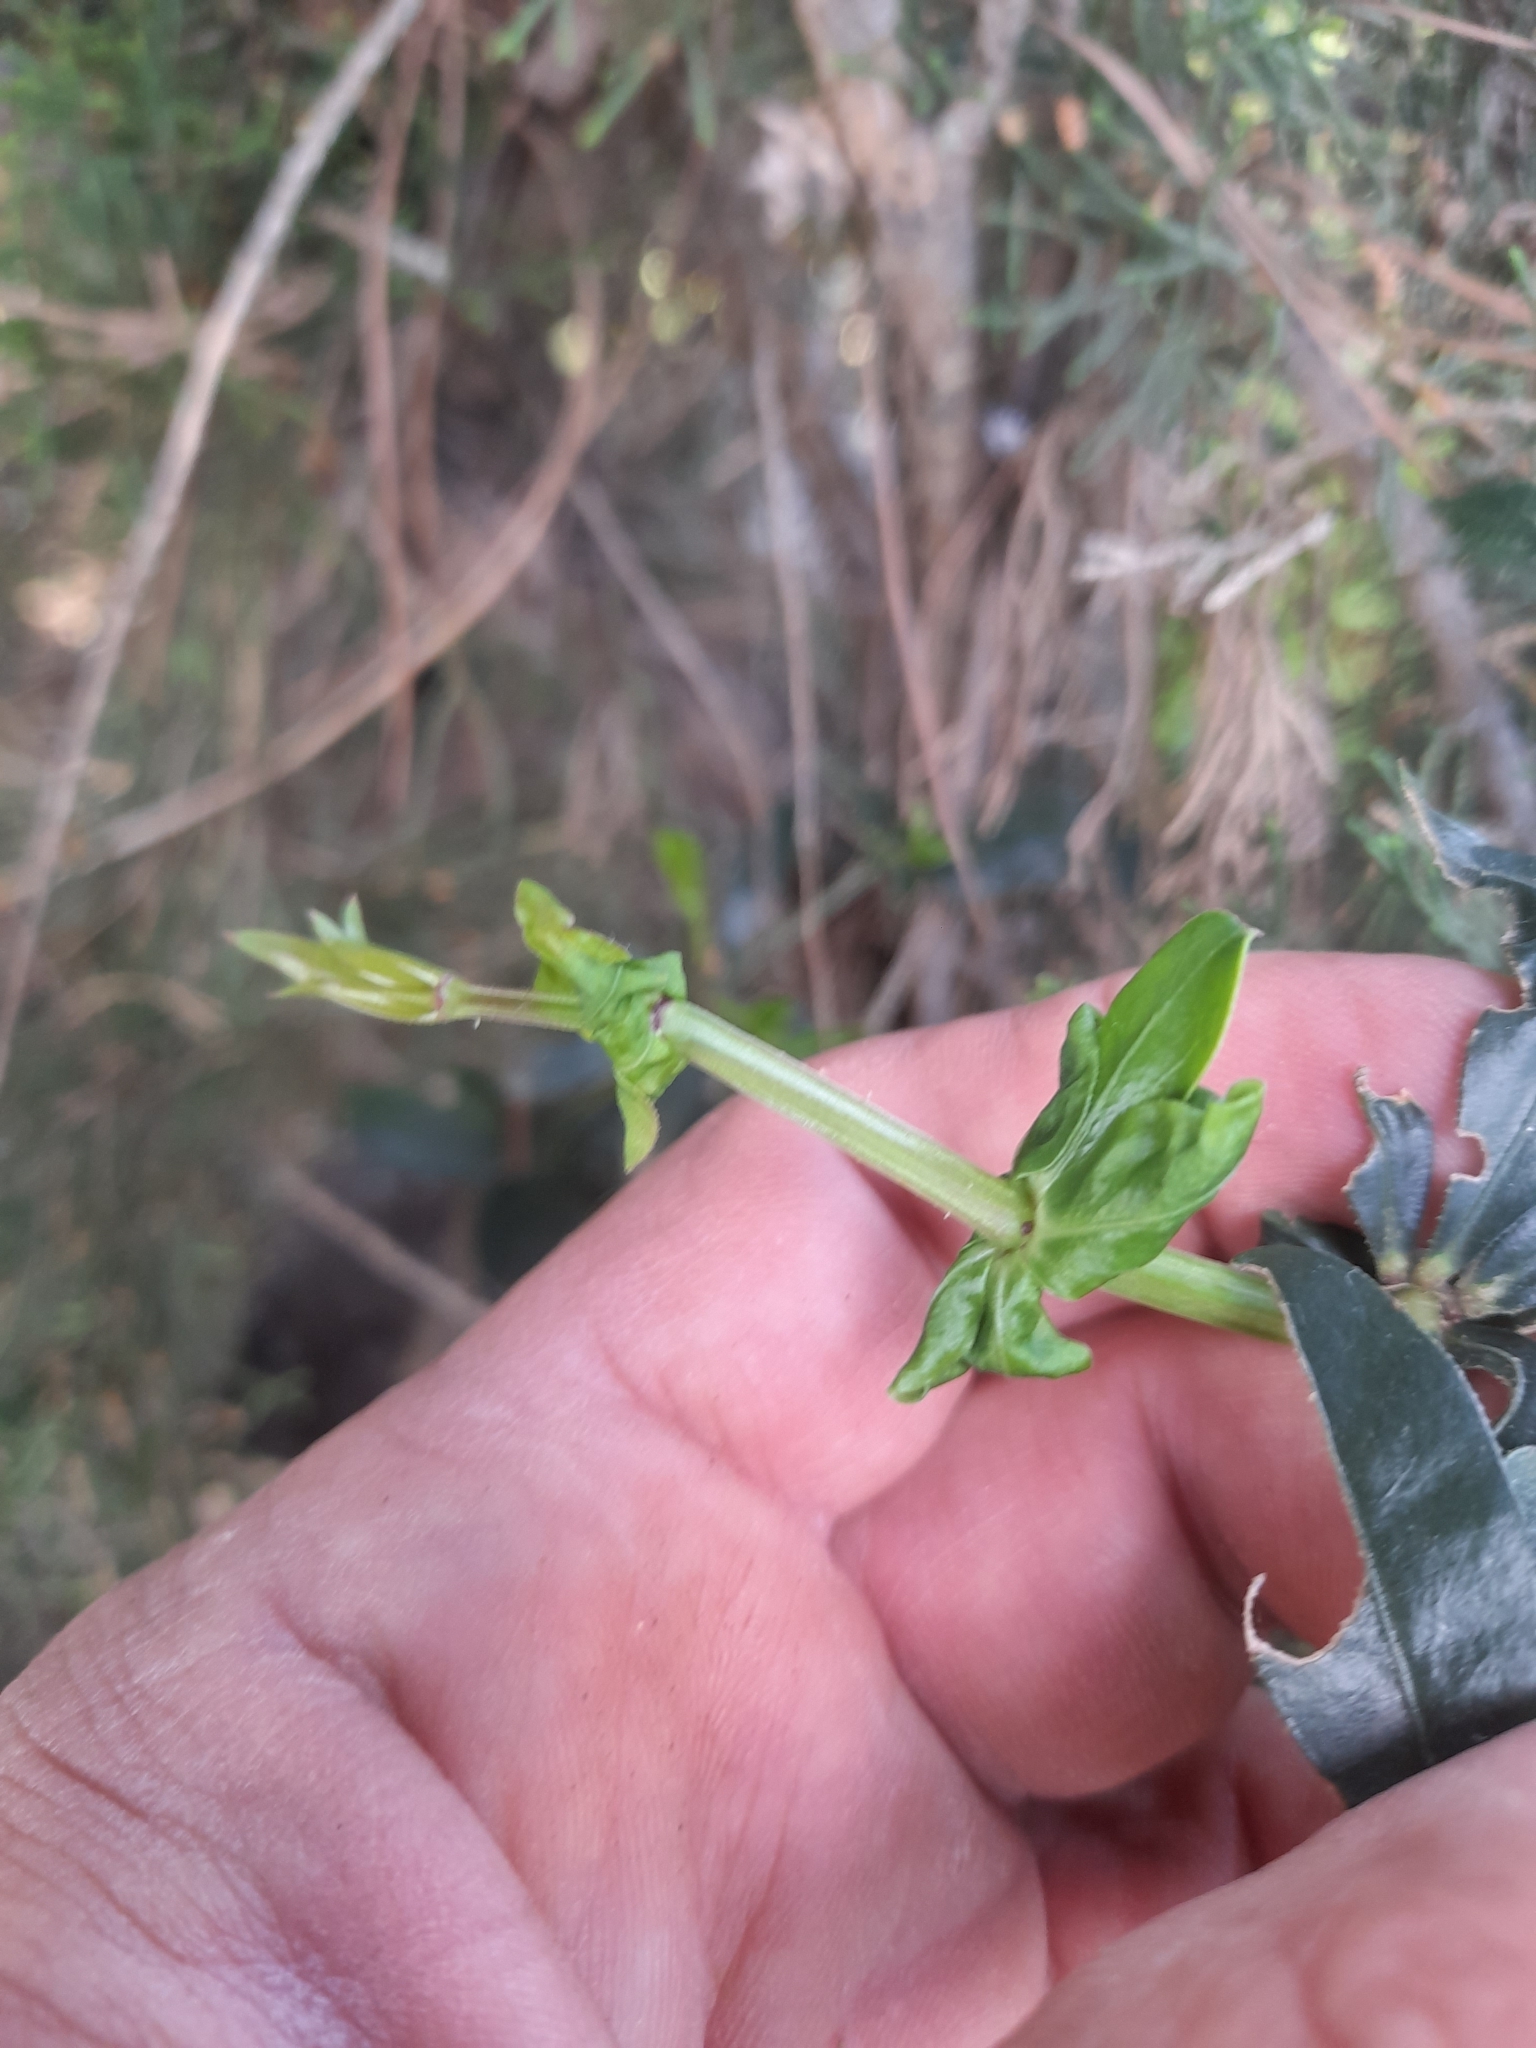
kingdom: Plantae
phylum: Tracheophyta
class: Magnoliopsida
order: Gentianales
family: Rubiaceae
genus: Rubia
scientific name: Rubia peregrina
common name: Wild madder
